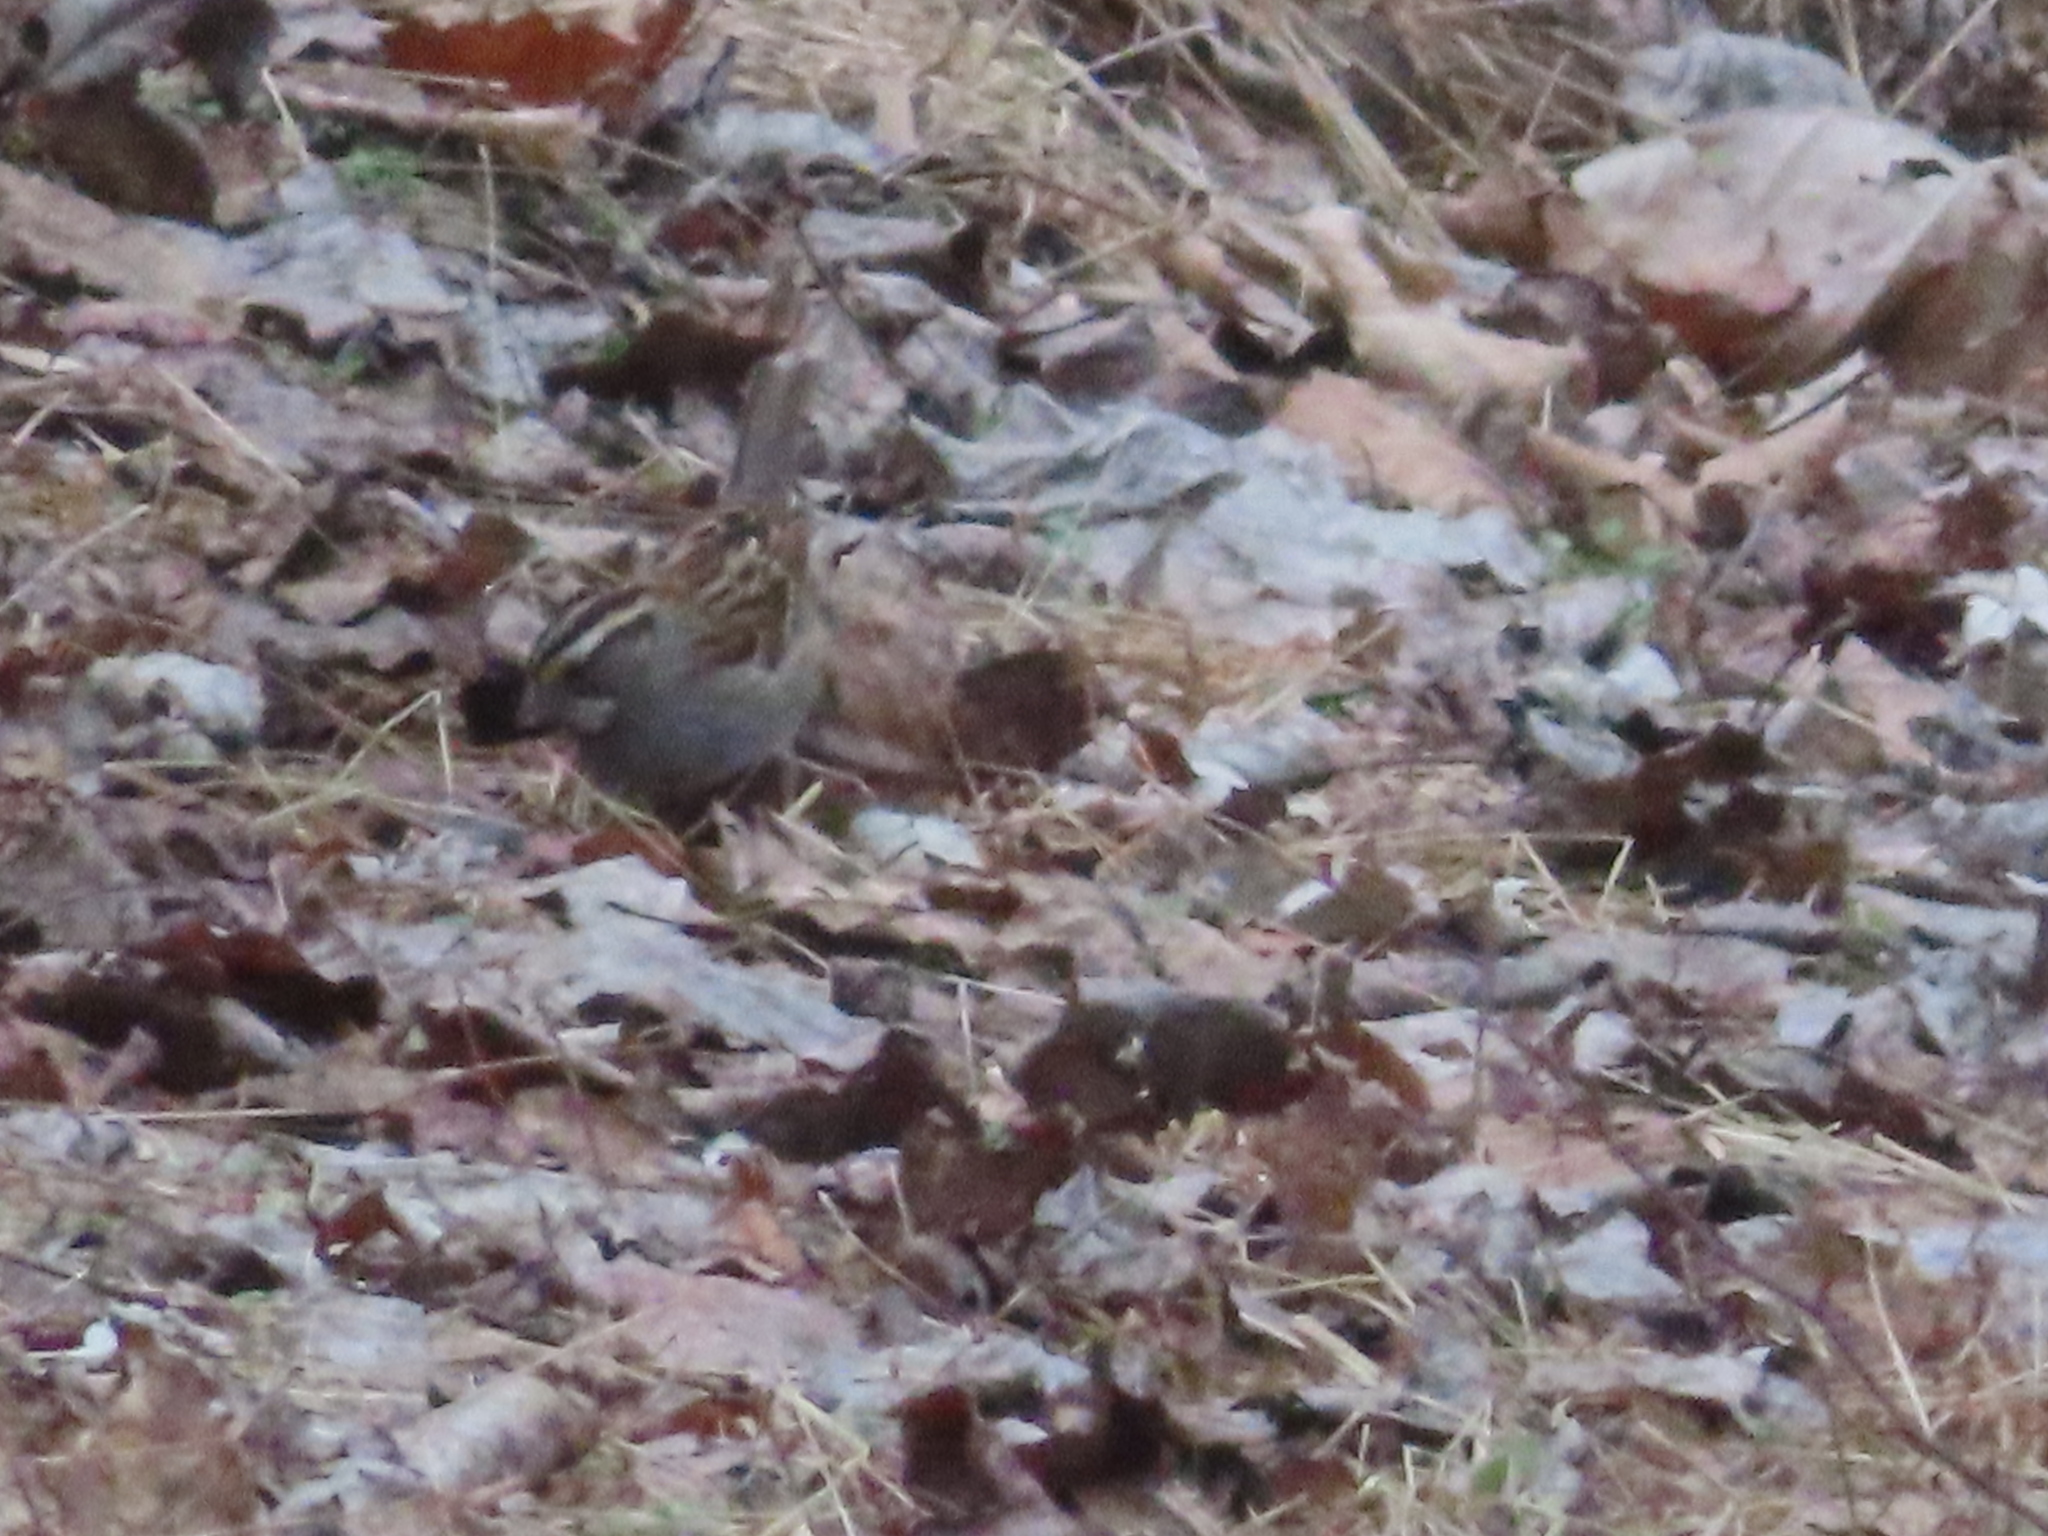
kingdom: Animalia
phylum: Chordata
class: Aves
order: Passeriformes
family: Passerellidae
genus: Junco
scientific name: Junco hyemalis
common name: Dark-eyed junco
